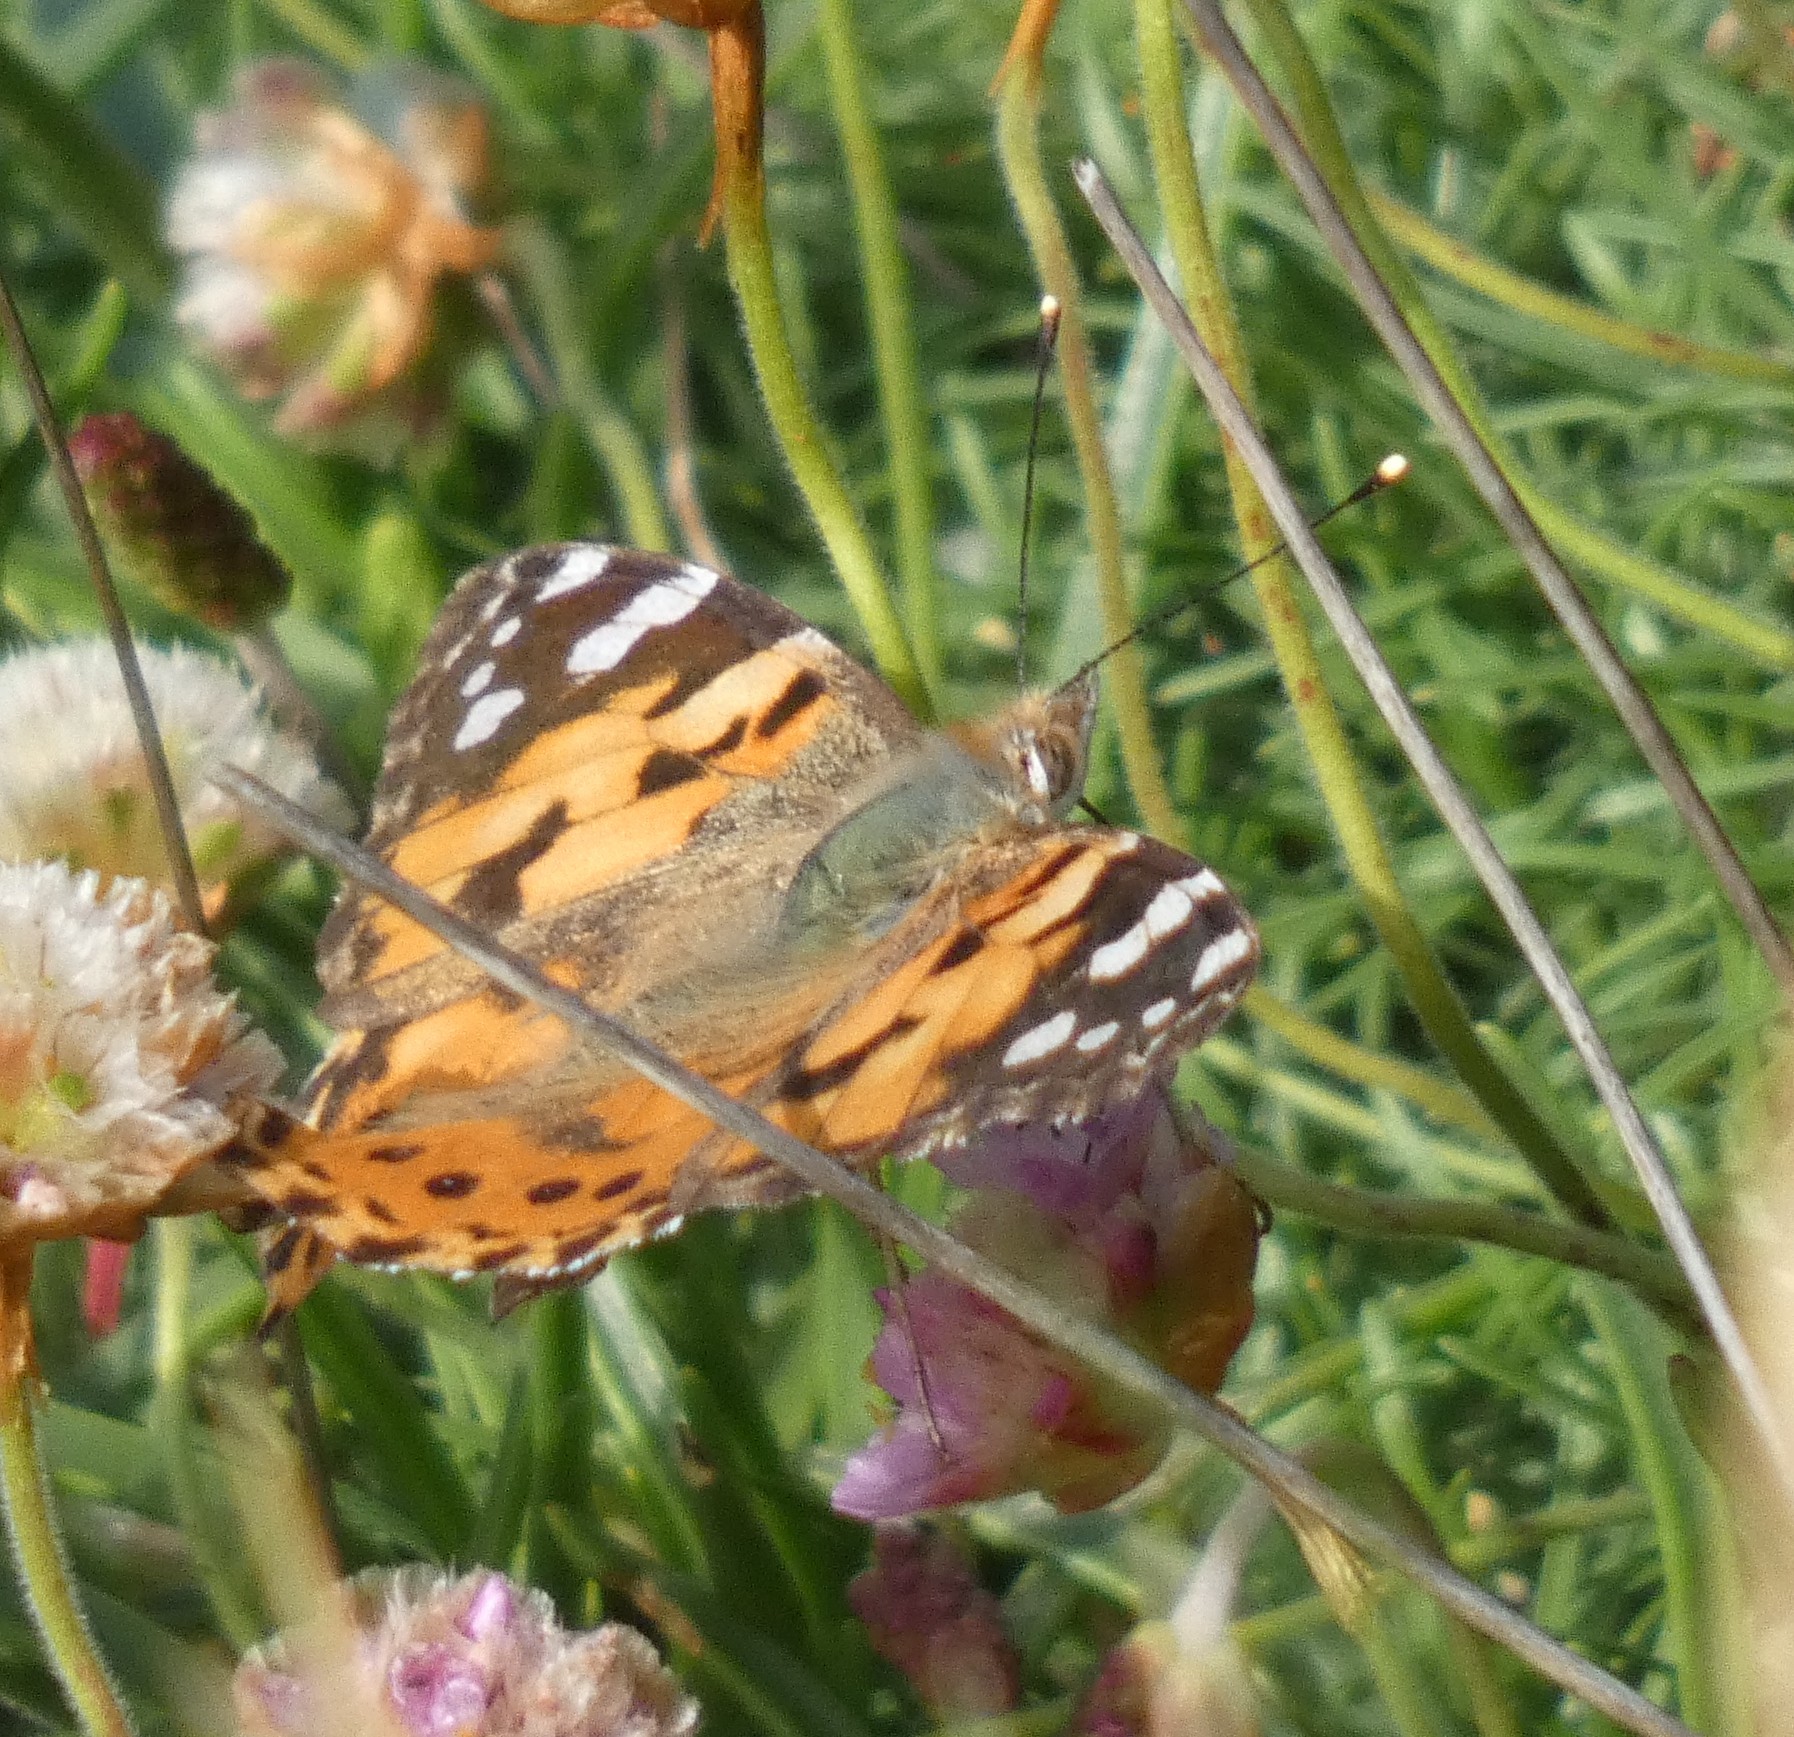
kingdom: Animalia
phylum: Arthropoda
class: Insecta
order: Lepidoptera
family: Nymphalidae
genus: Vanessa
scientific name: Vanessa cardui
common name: Painted lady
